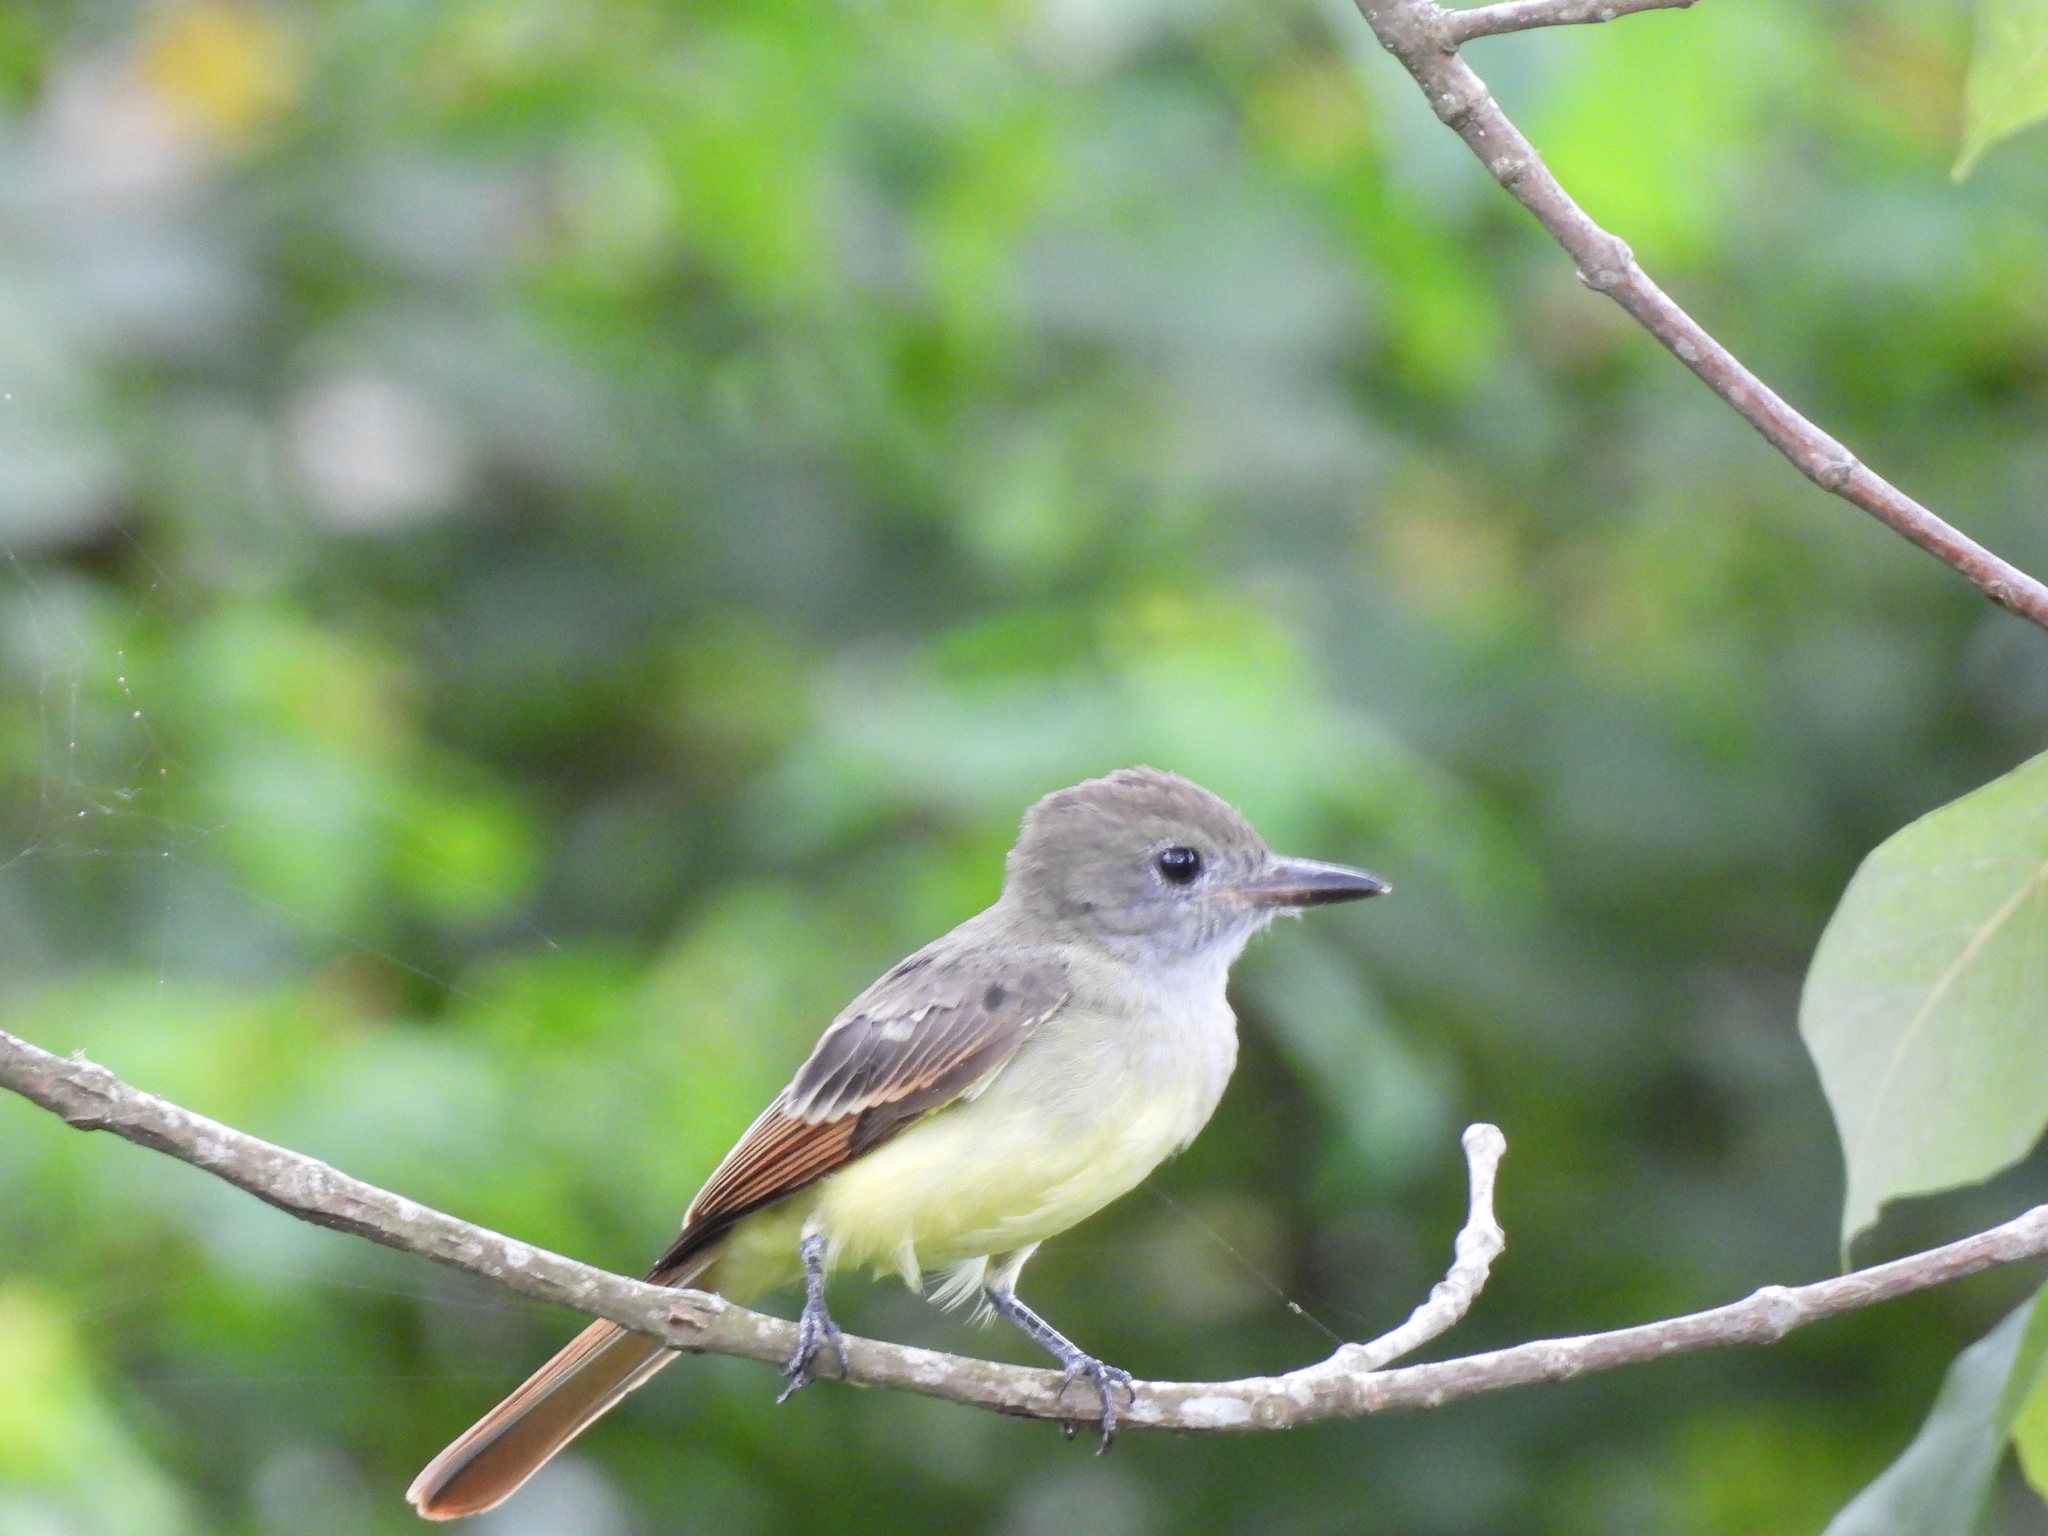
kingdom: Animalia
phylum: Chordata
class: Aves
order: Passeriformes
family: Tyrannidae
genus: Myiarchus
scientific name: Myiarchus crinitus
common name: Great crested flycatcher
